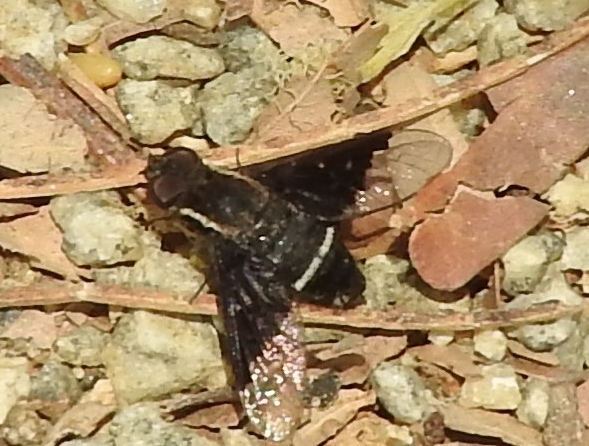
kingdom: Animalia
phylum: Arthropoda
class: Insecta
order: Diptera
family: Bombyliidae
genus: Hemipenthes
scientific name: Hemipenthes
